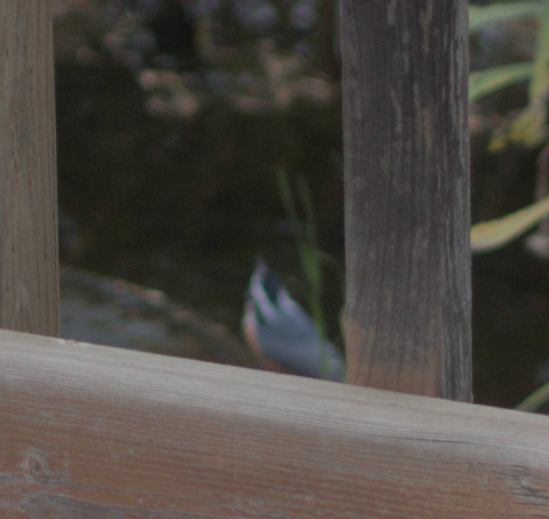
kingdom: Animalia
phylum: Chordata
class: Aves
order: Passeriformes
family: Sittidae
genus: Sitta
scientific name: Sitta canadensis
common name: Red-breasted nuthatch
